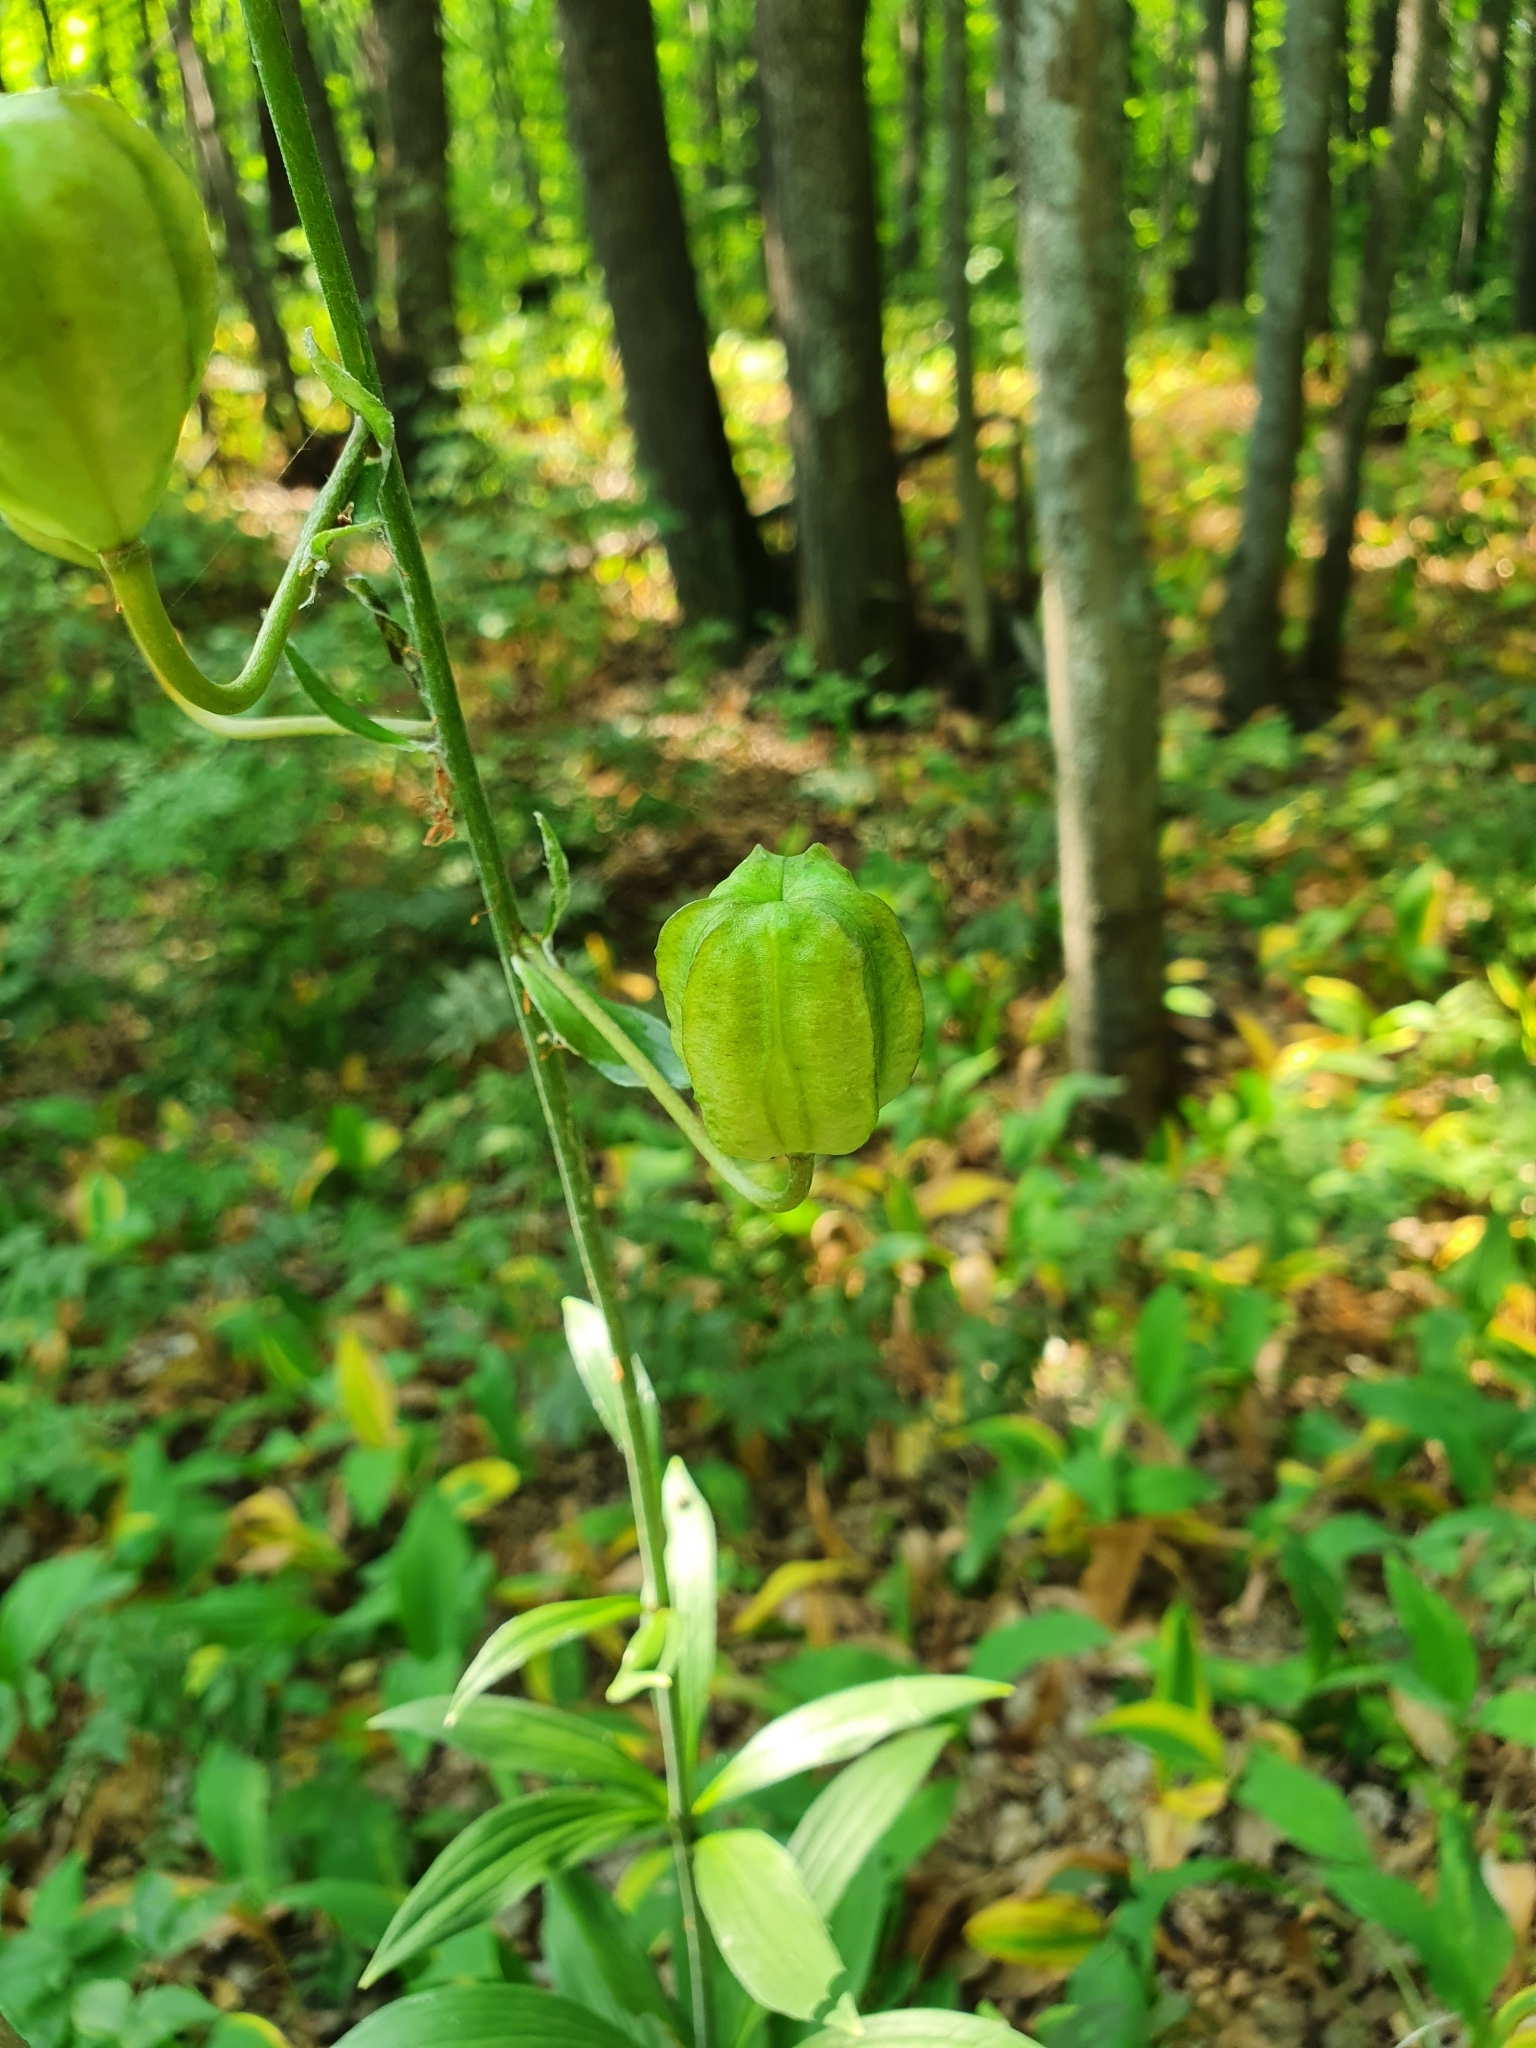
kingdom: Plantae
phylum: Tracheophyta
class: Liliopsida
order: Liliales
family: Liliaceae
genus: Lilium
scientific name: Lilium martagon
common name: Martagon lily
